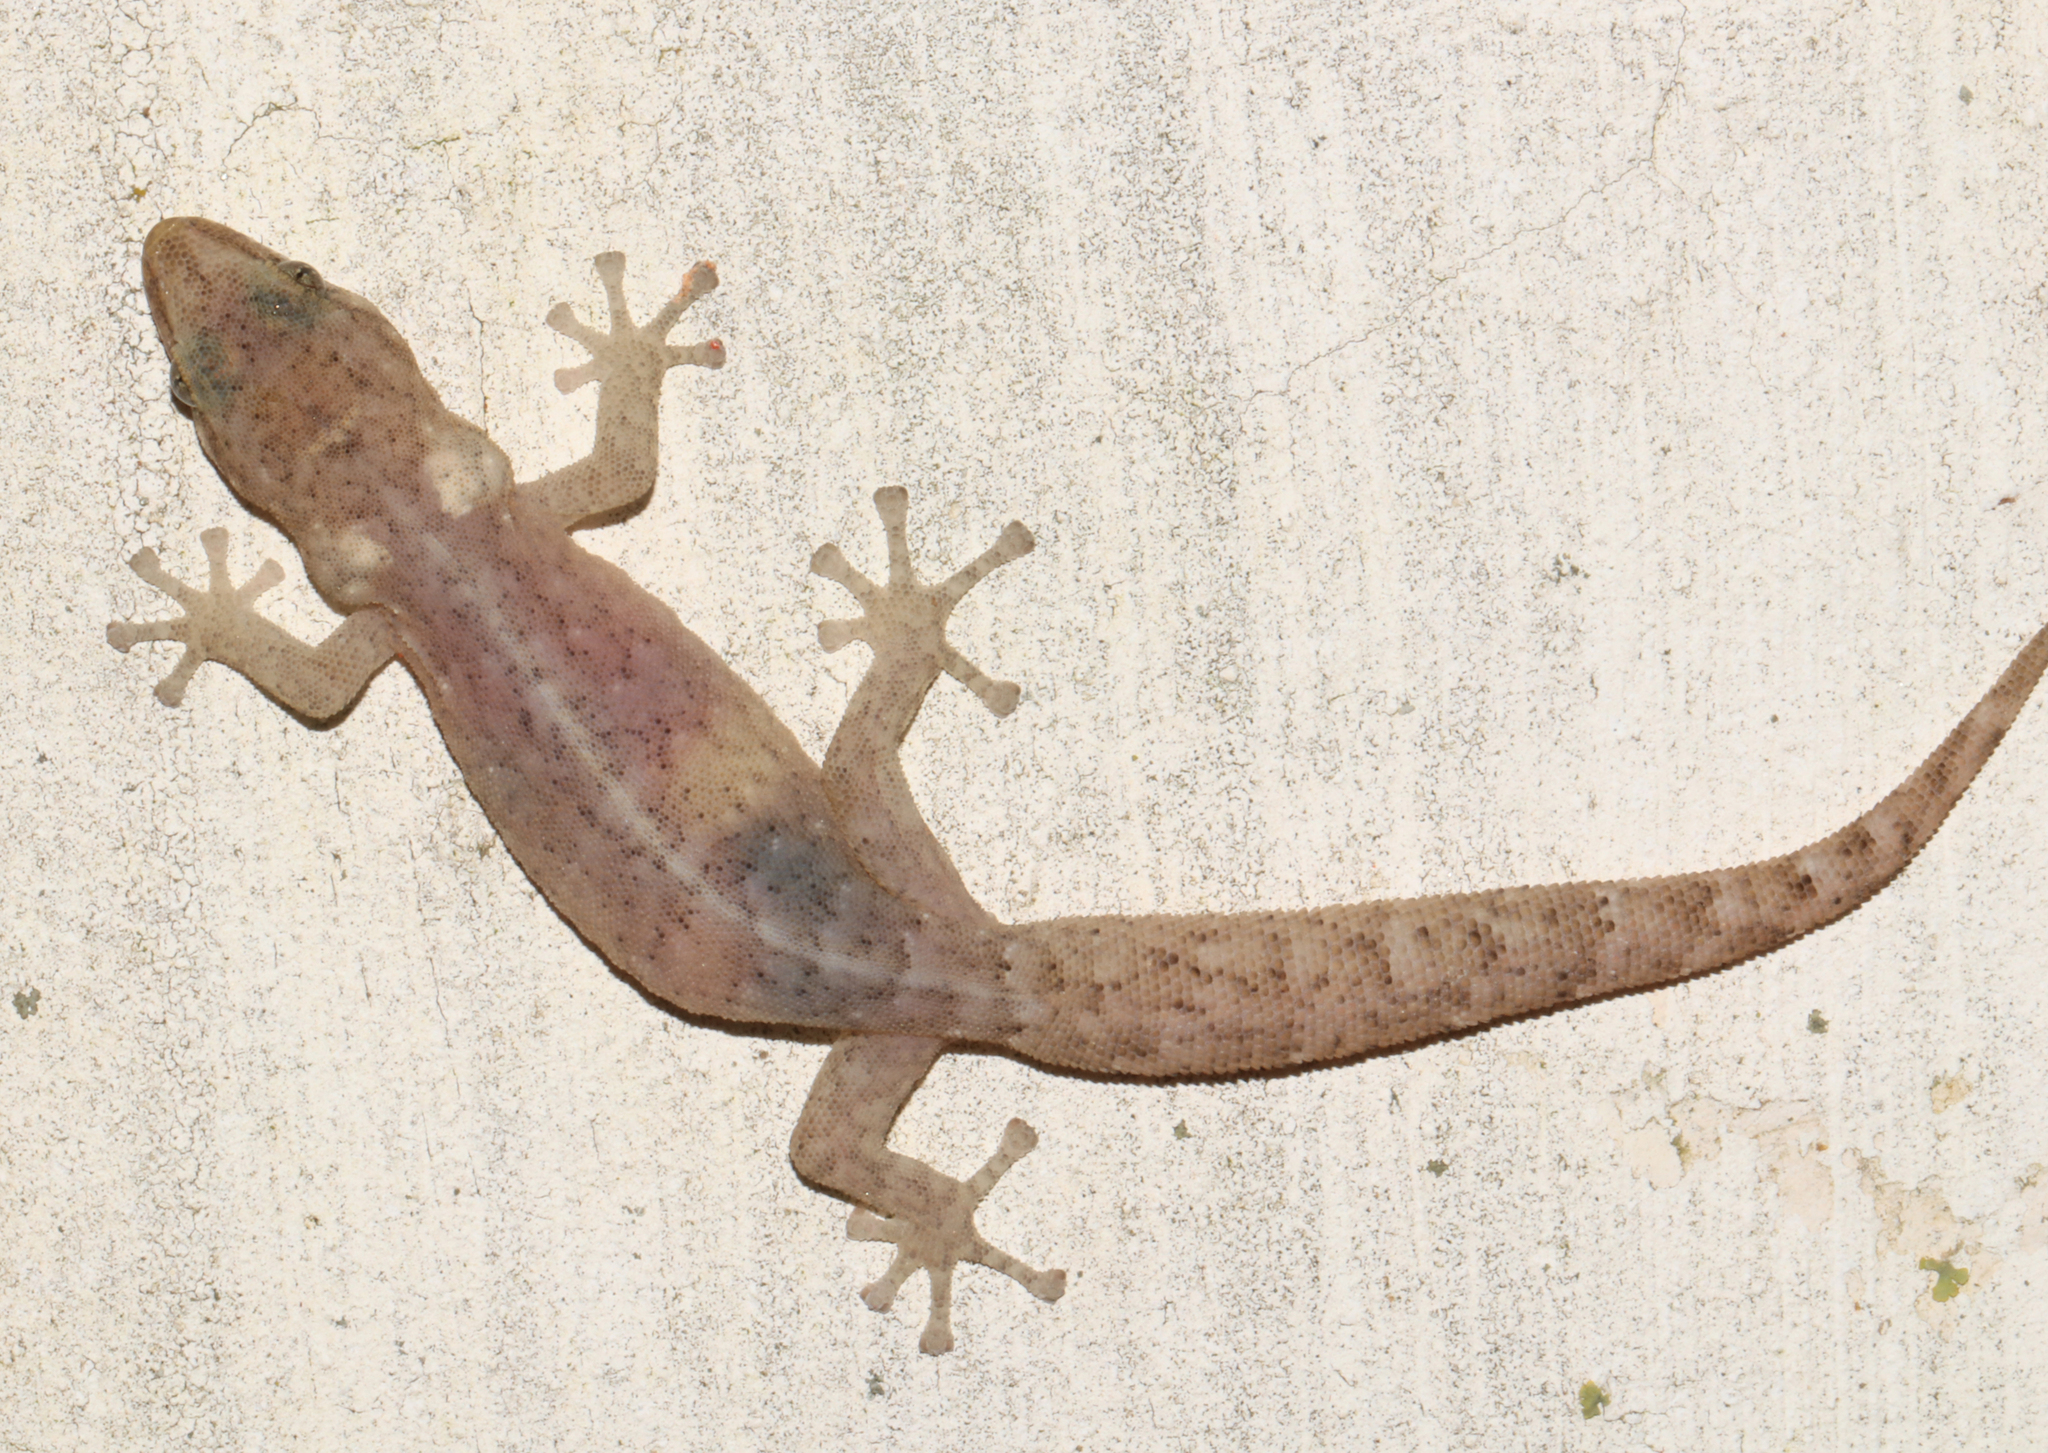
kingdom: Animalia
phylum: Chordata
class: Squamata
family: Gekkonidae
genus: Afrogecko
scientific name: Afrogecko porphyreus
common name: Marbled leaf-toed gecko
